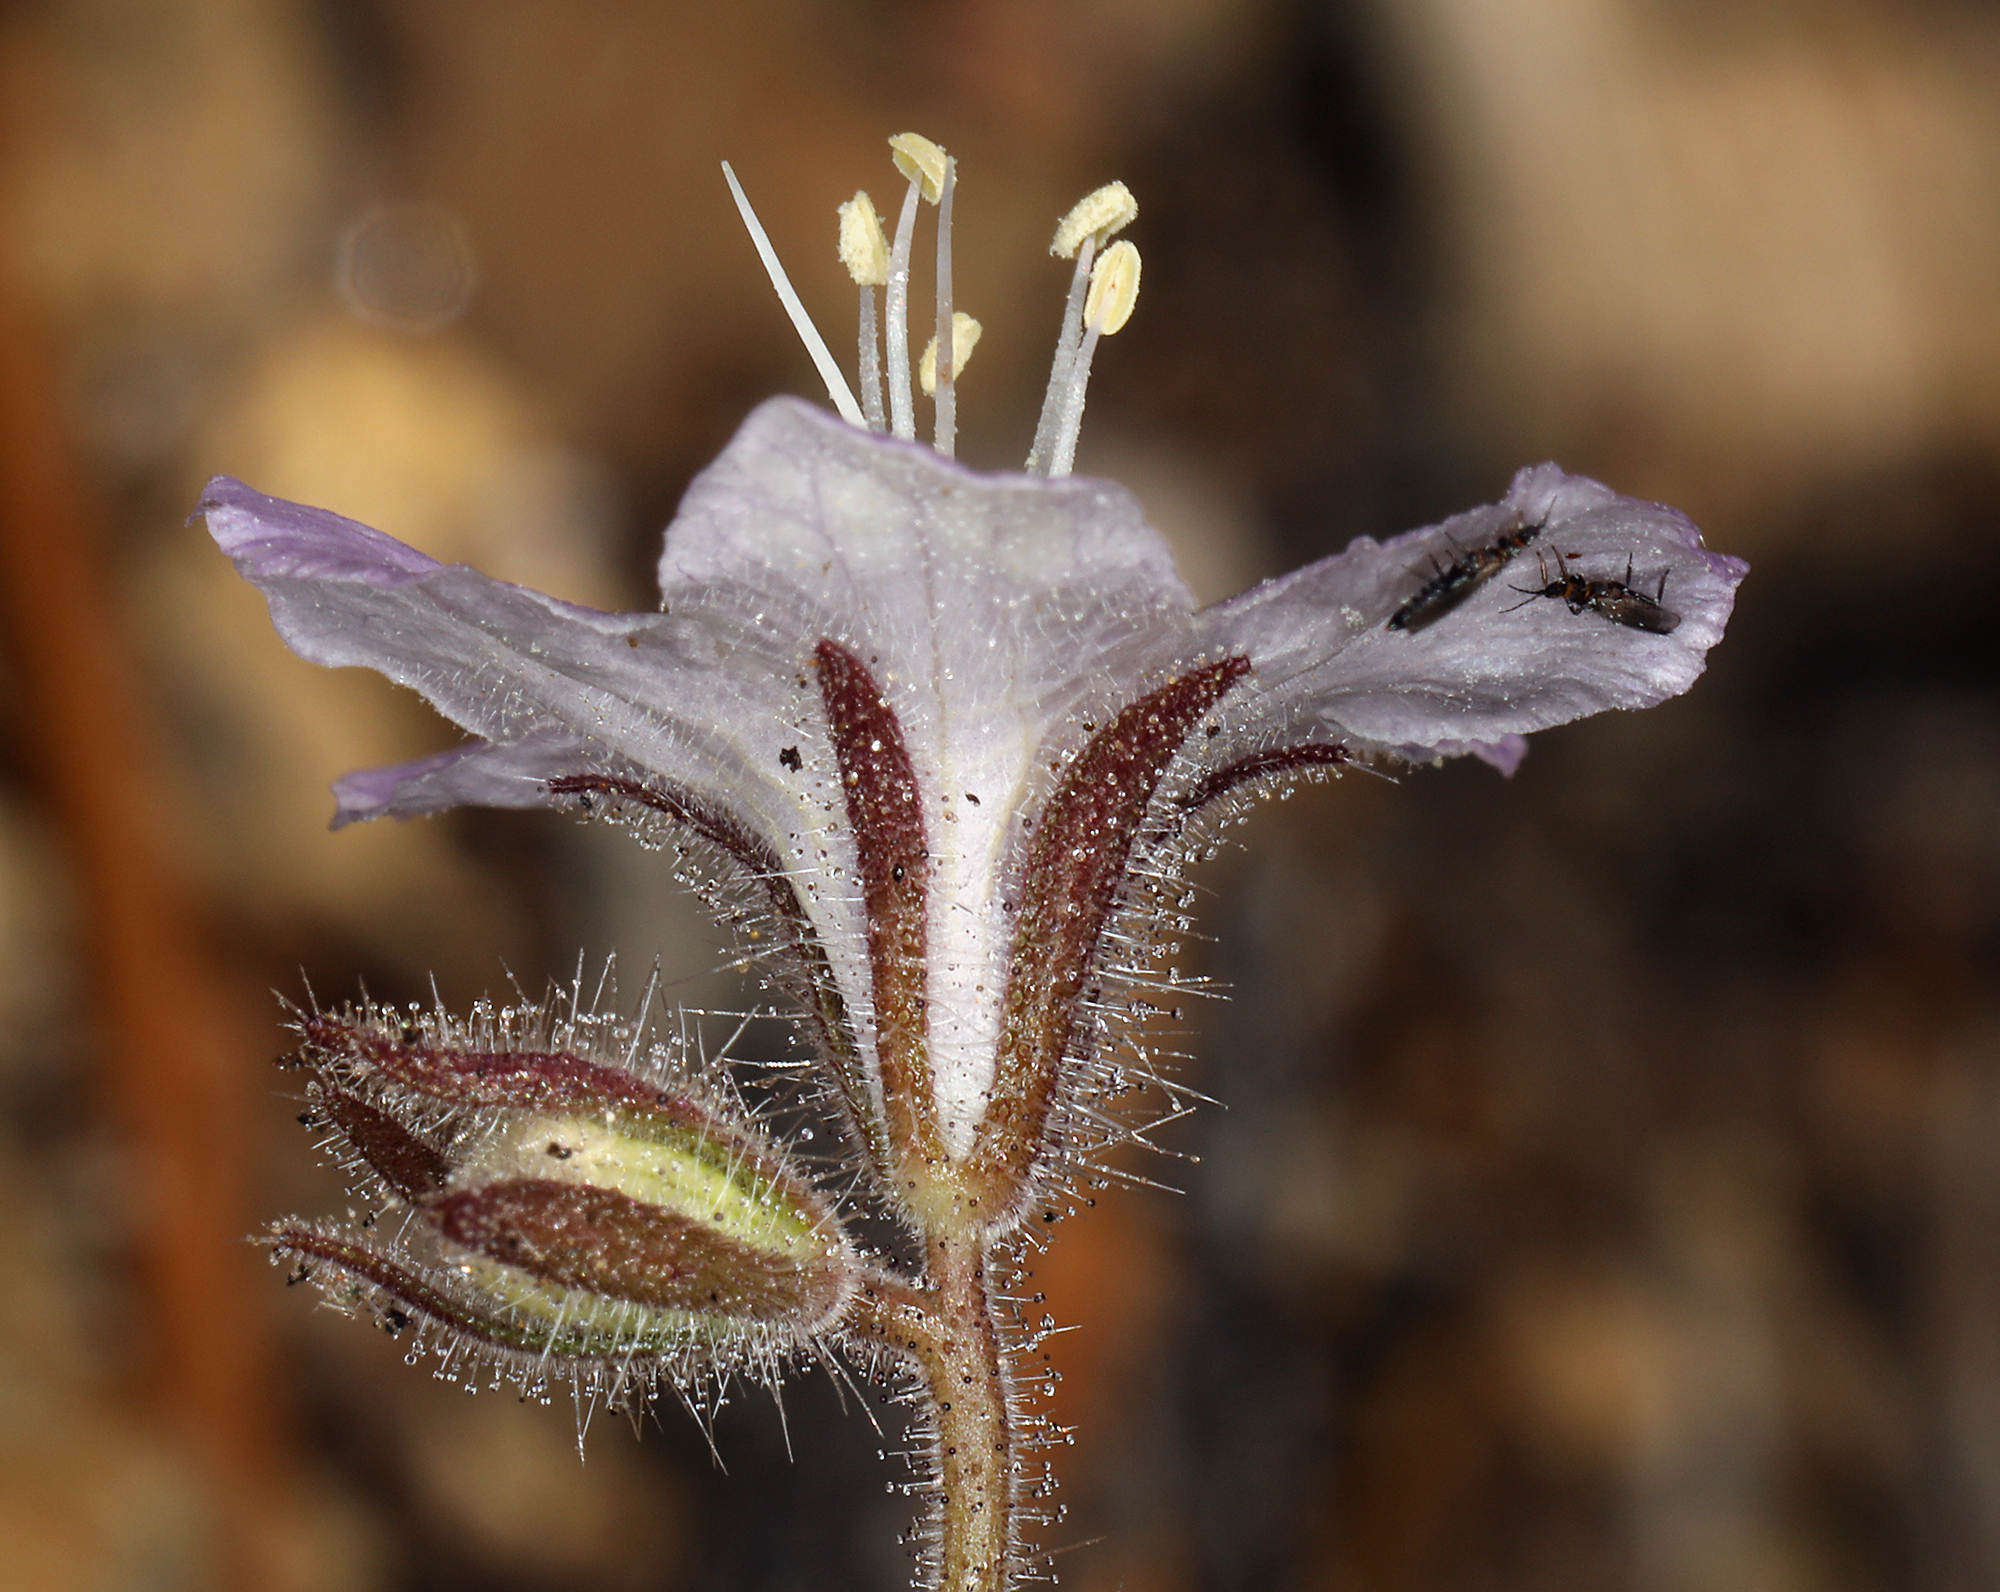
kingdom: Plantae
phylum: Tracheophyta
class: Magnoliopsida
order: Boraginales
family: Hydrophyllaceae
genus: Phacelia
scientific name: Phacelia vallis-mortae
